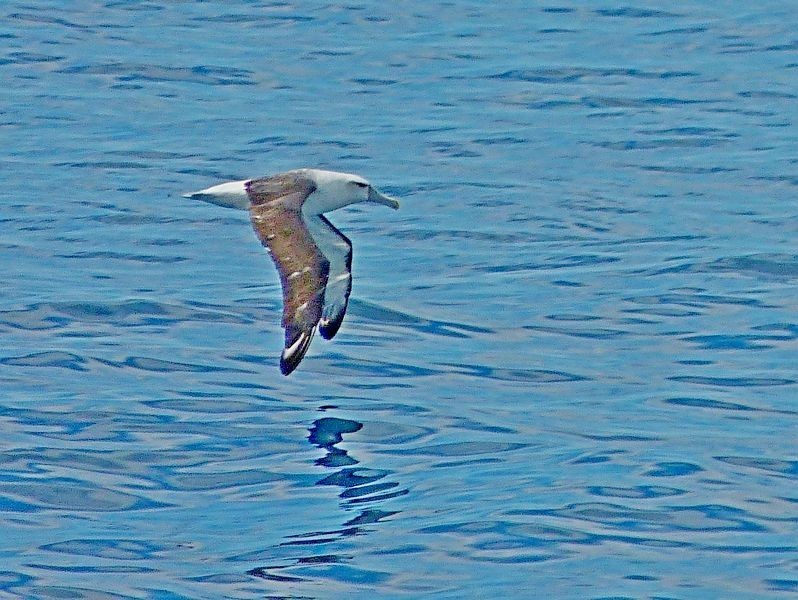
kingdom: Animalia
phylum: Chordata
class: Aves
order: Procellariiformes
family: Diomedeidae
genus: Thalassarche
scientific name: Thalassarche cauta
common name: Shy albatross
